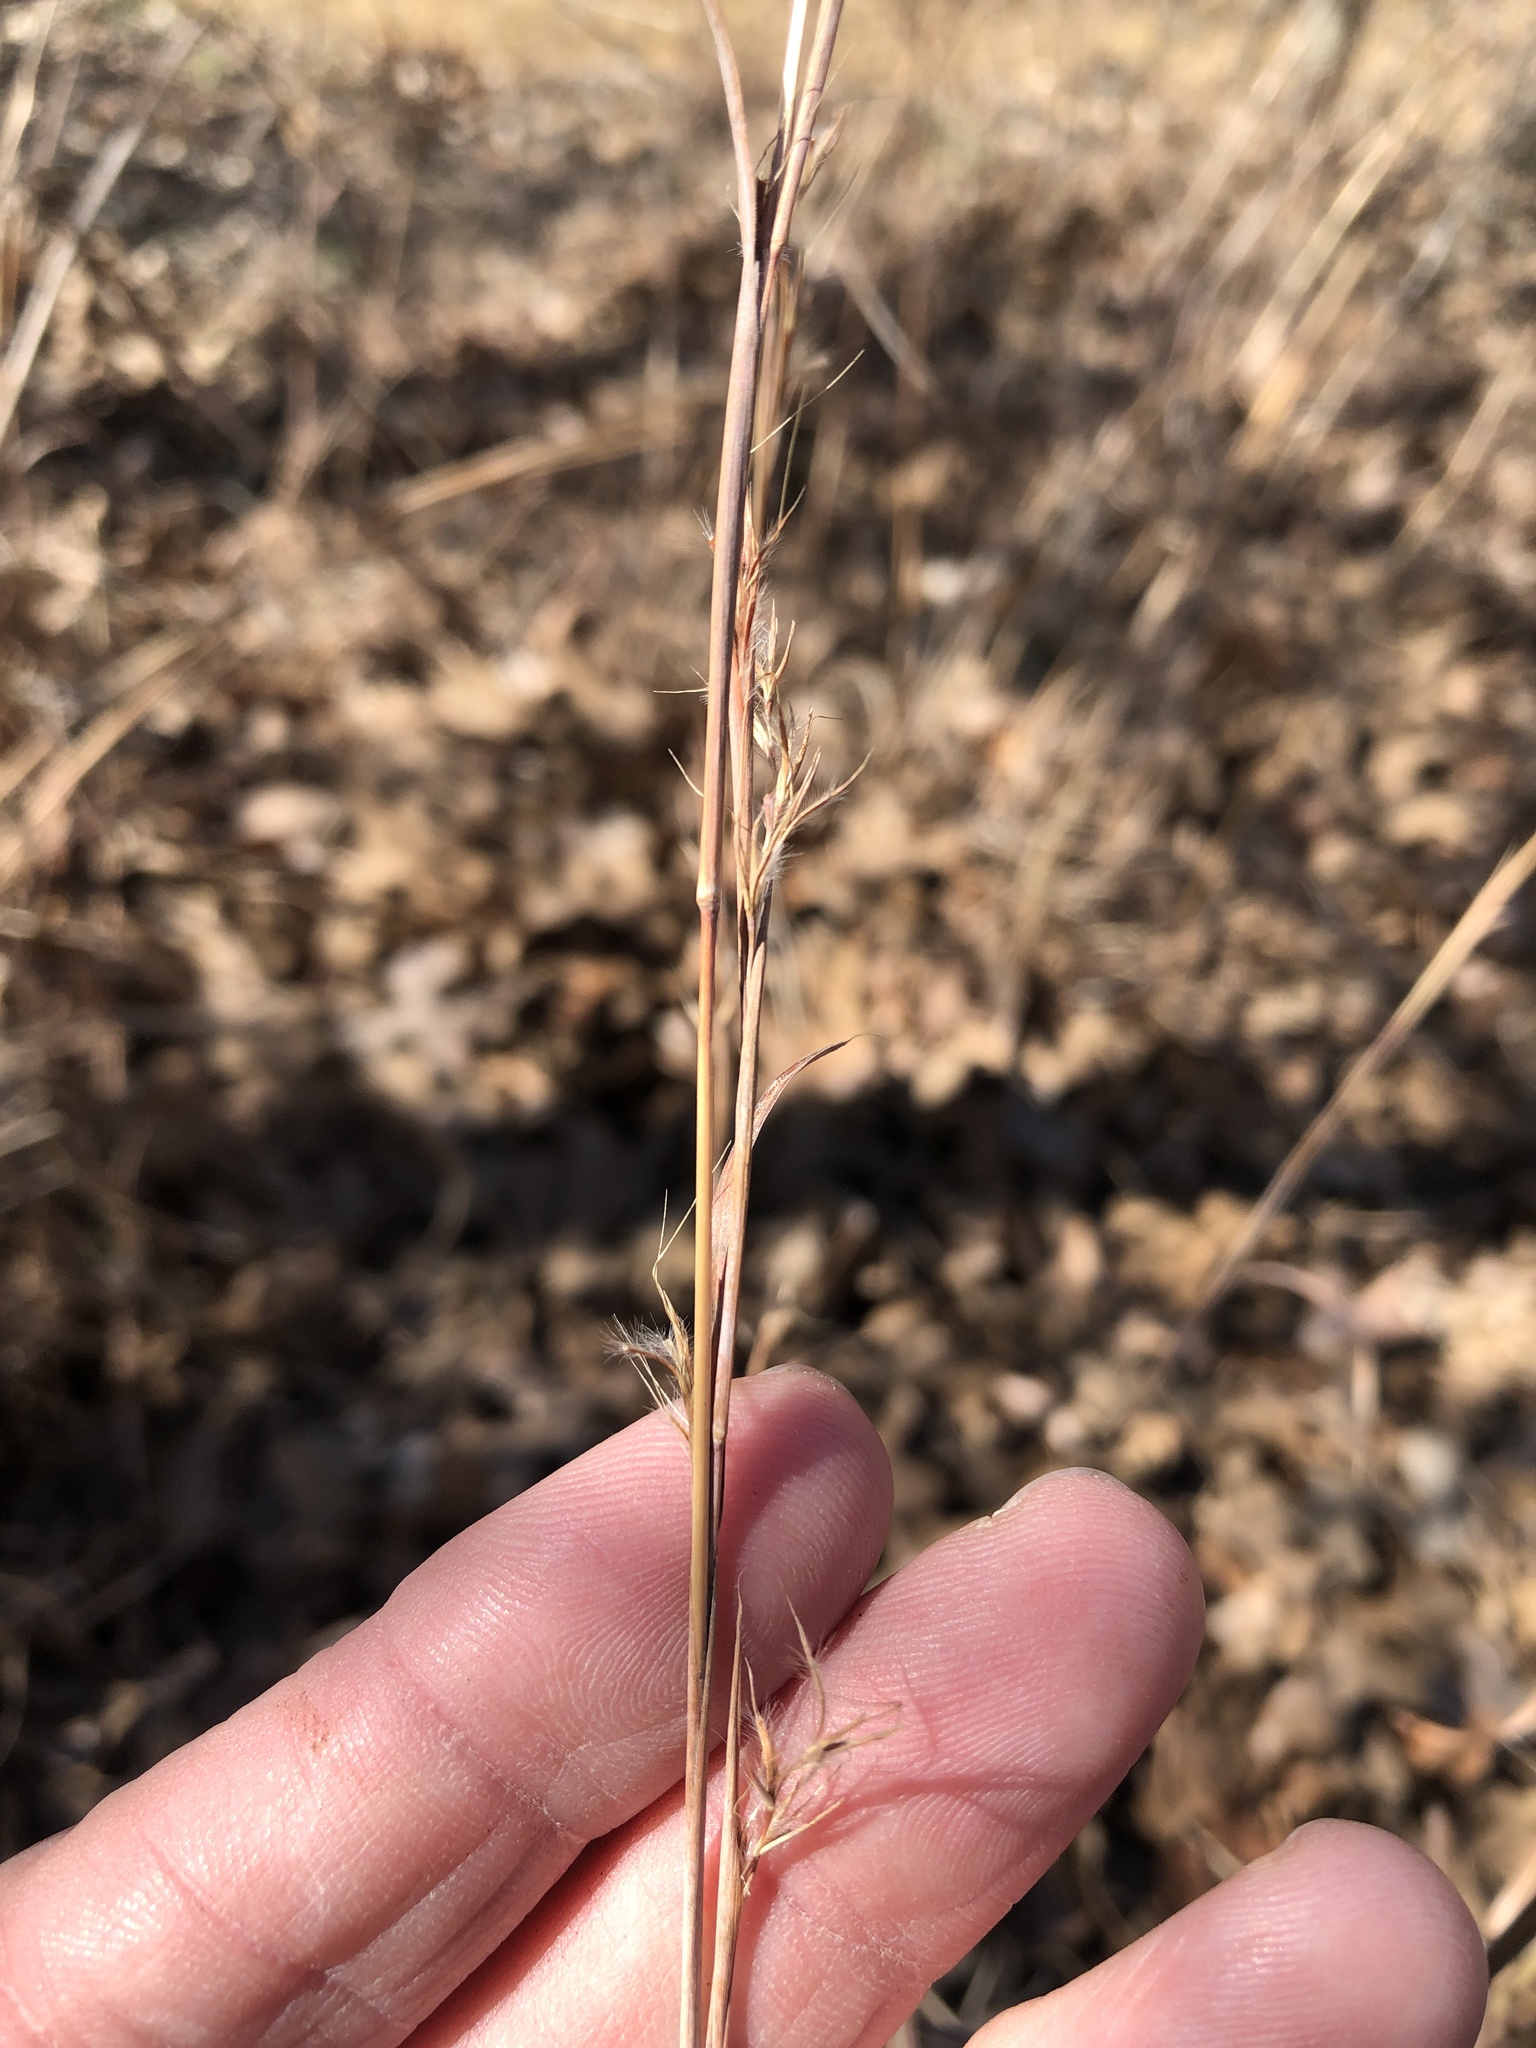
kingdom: Plantae
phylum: Tracheophyta
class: Liliopsida
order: Poales
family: Poaceae
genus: Schizachyrium
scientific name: Schizachyrium scoparium
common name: Little bluestem
